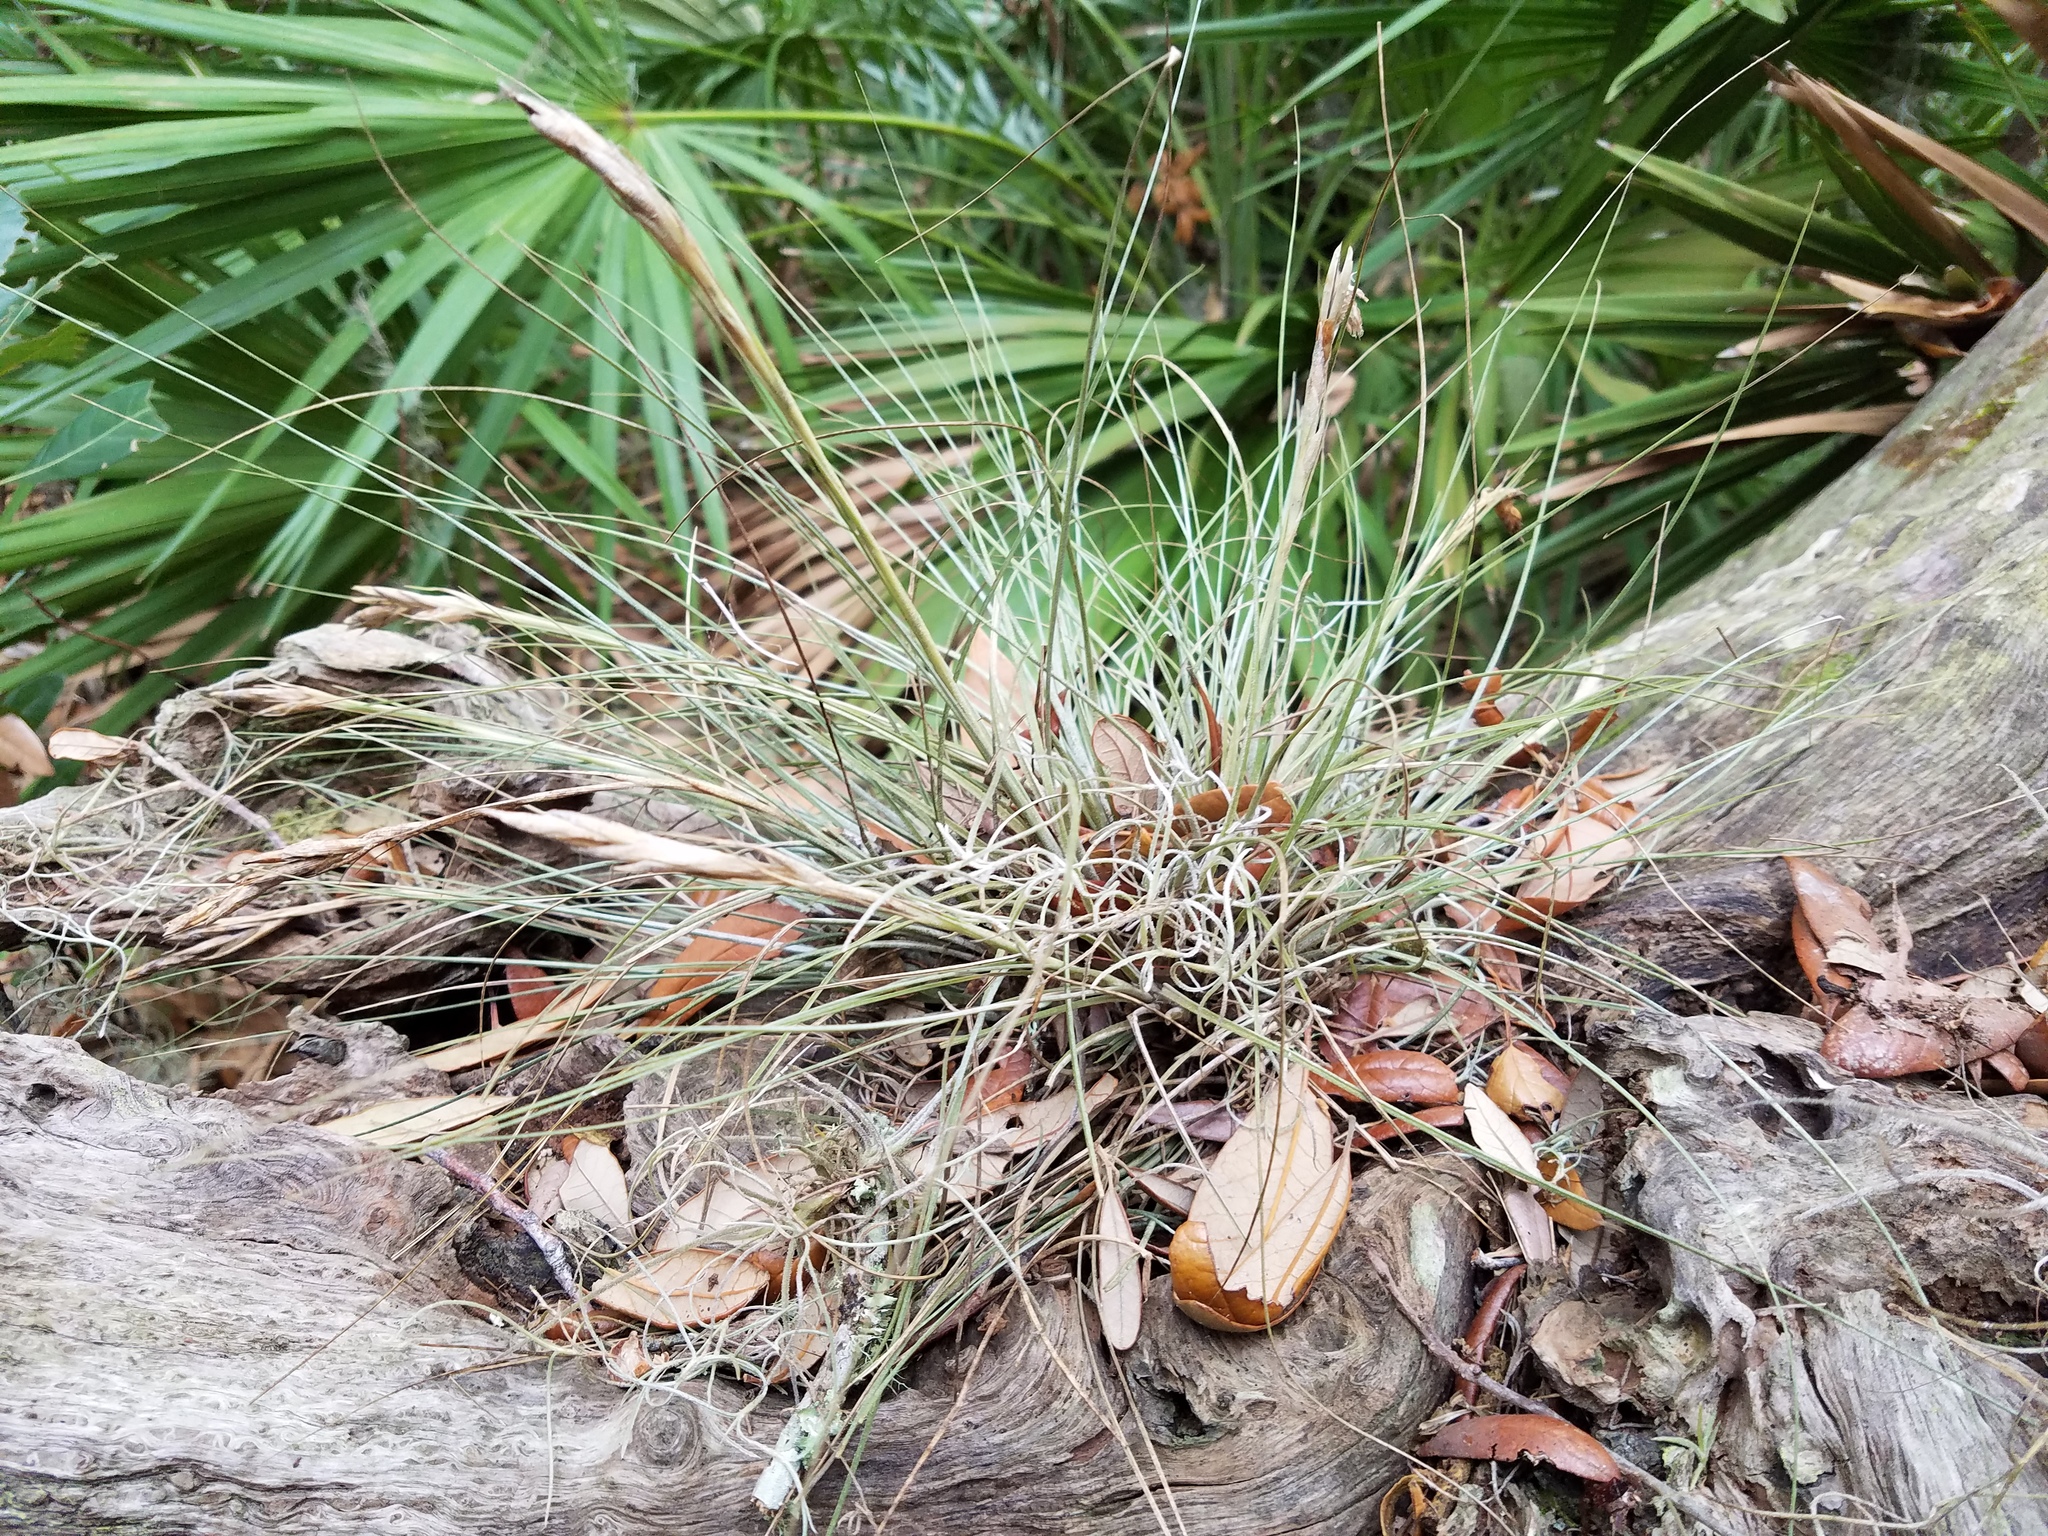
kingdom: Plantae
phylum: Tracheophyta
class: Liliopsida
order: Poales
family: Bromeliaceae
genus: Tillandsia
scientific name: Tillandsia bartramii
